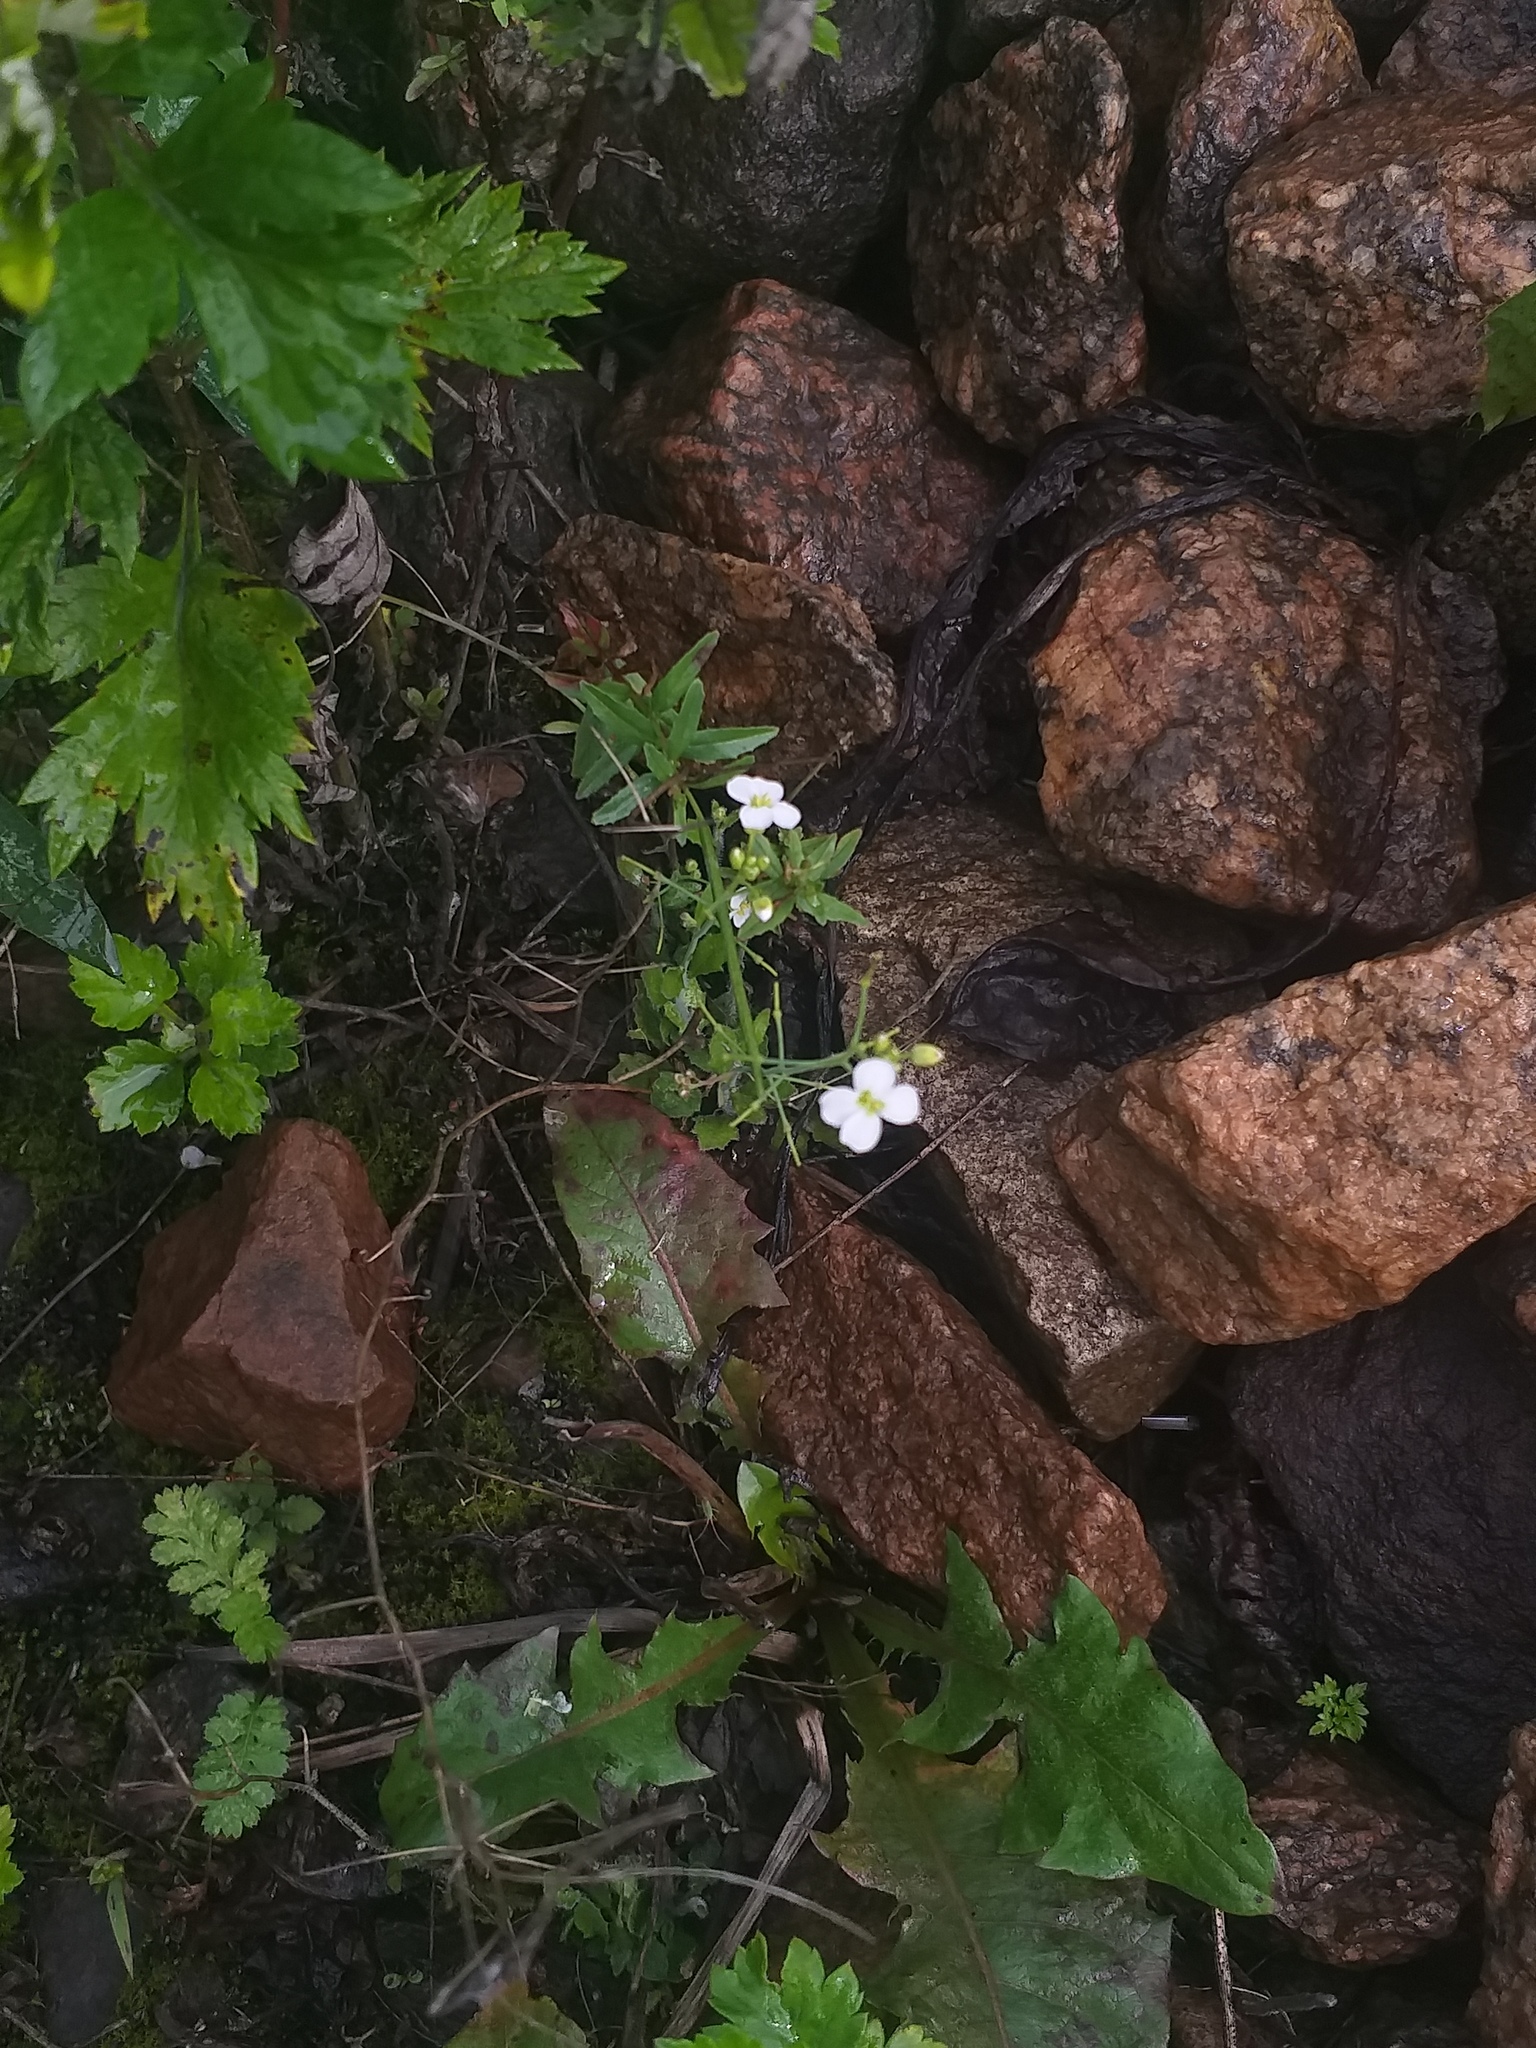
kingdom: Plantae
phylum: Tracheophyta
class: Magnoliopsida
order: Brassicales
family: Brassicaceae
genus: Arabidopsis
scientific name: Arabidopsis arenosa
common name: Sand rock-cress
